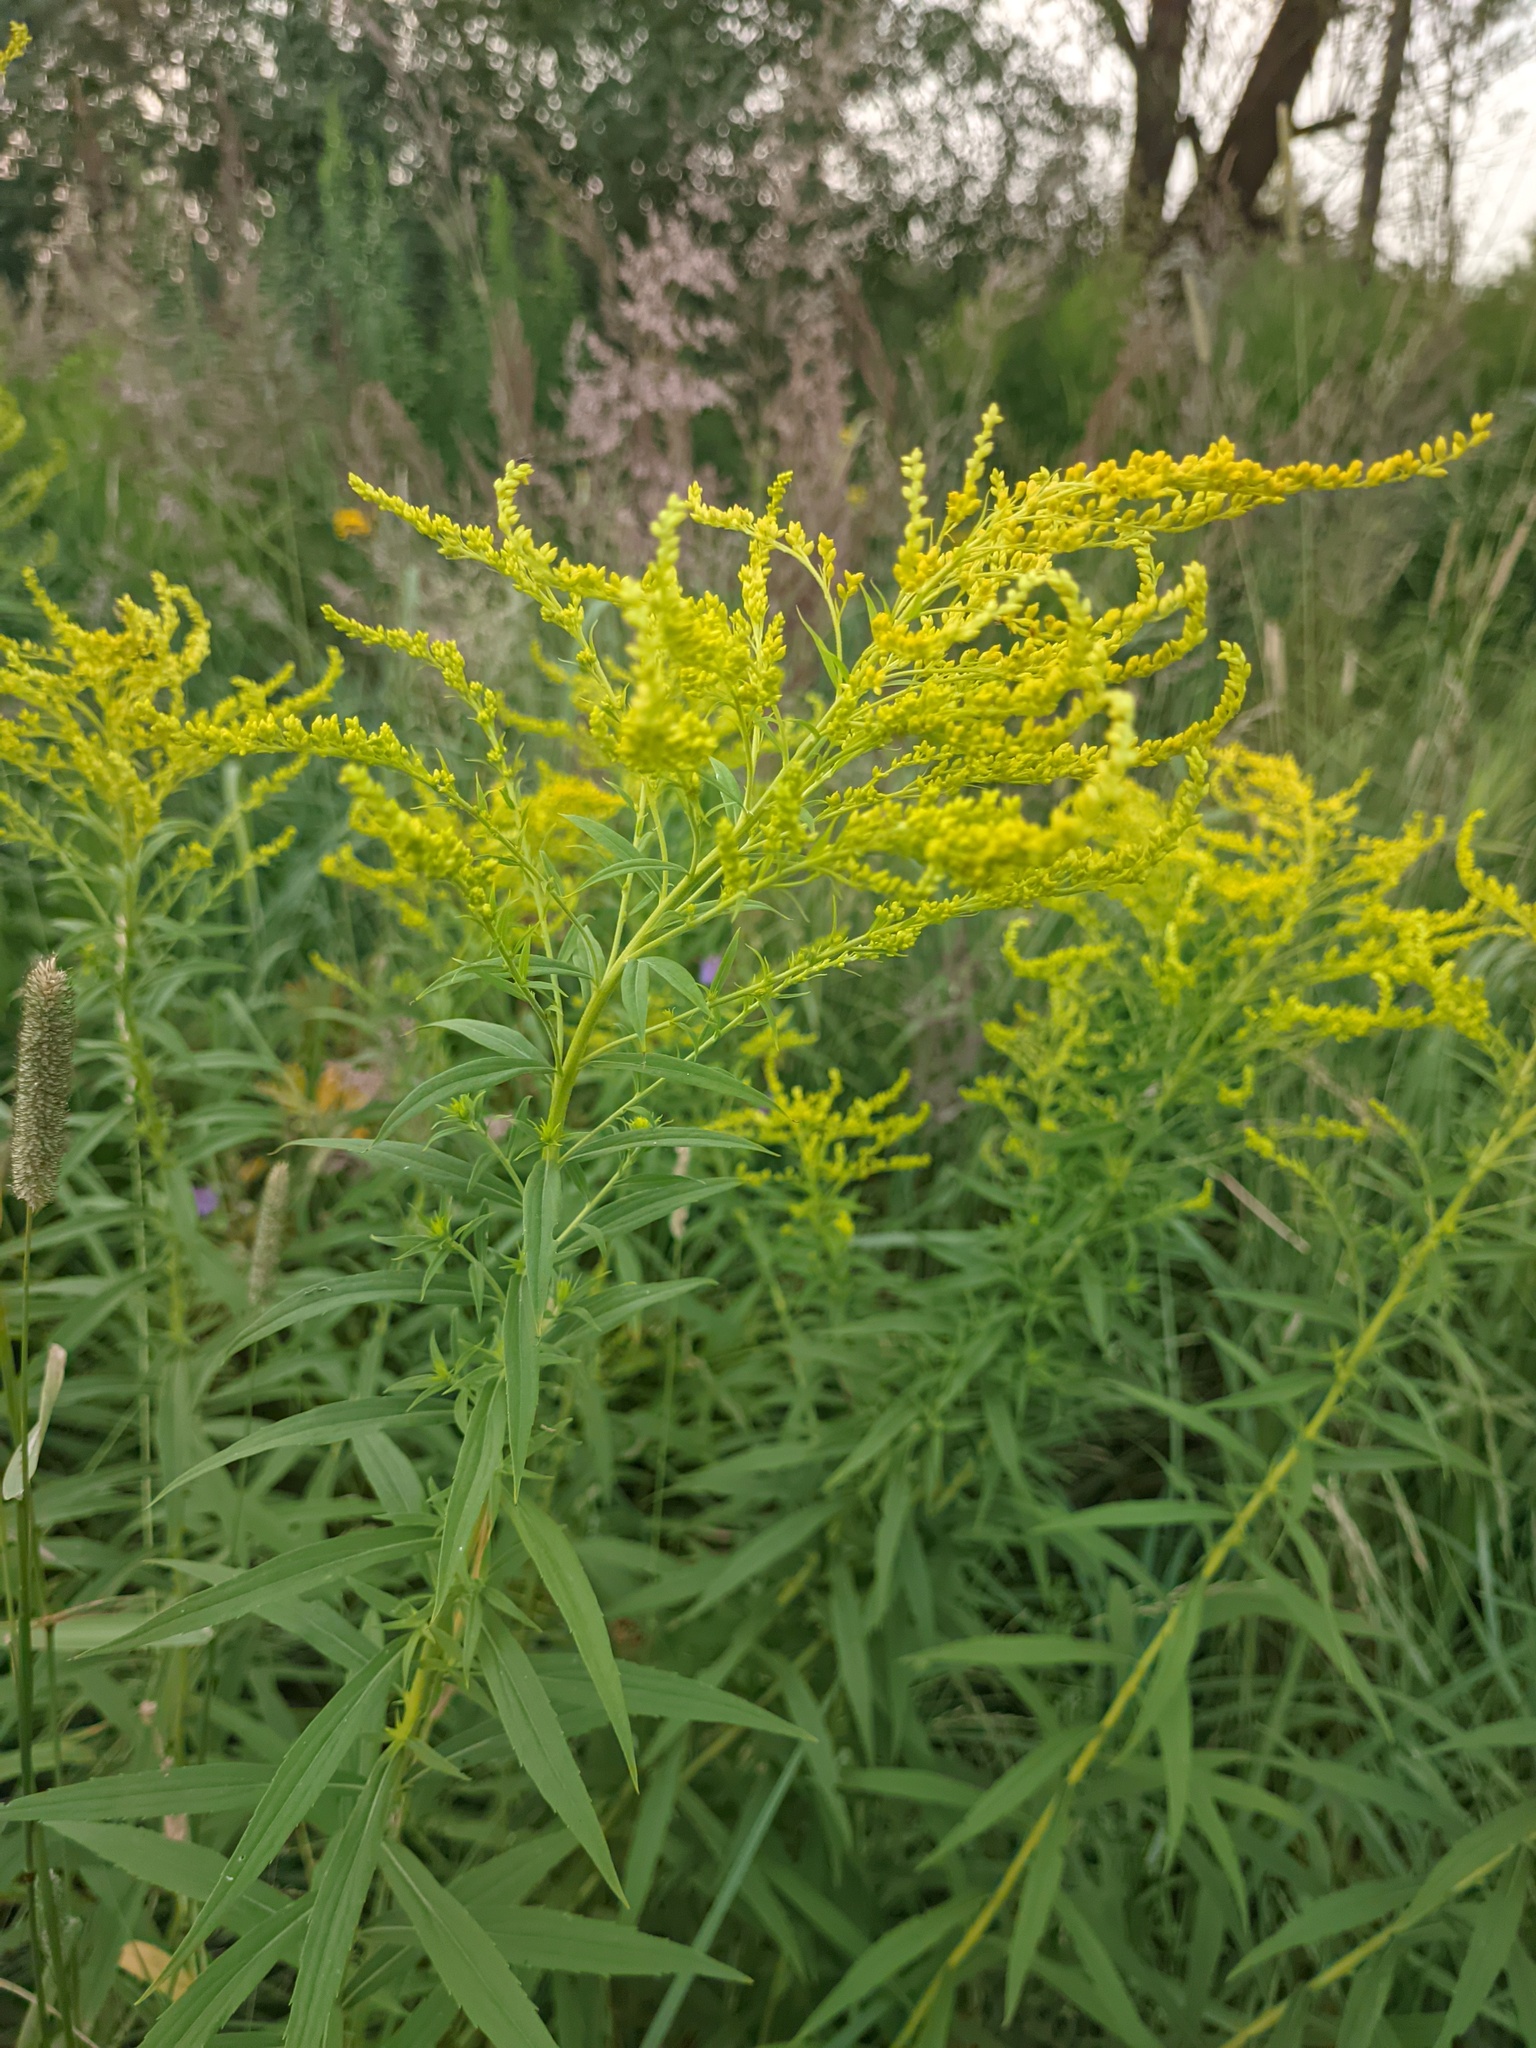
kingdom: Plantae
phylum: Tracheophyta
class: Magnoliopsida
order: Asterales
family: Asteraceae
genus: Solidago
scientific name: Solidago canadensis
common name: Canada goldenrod
